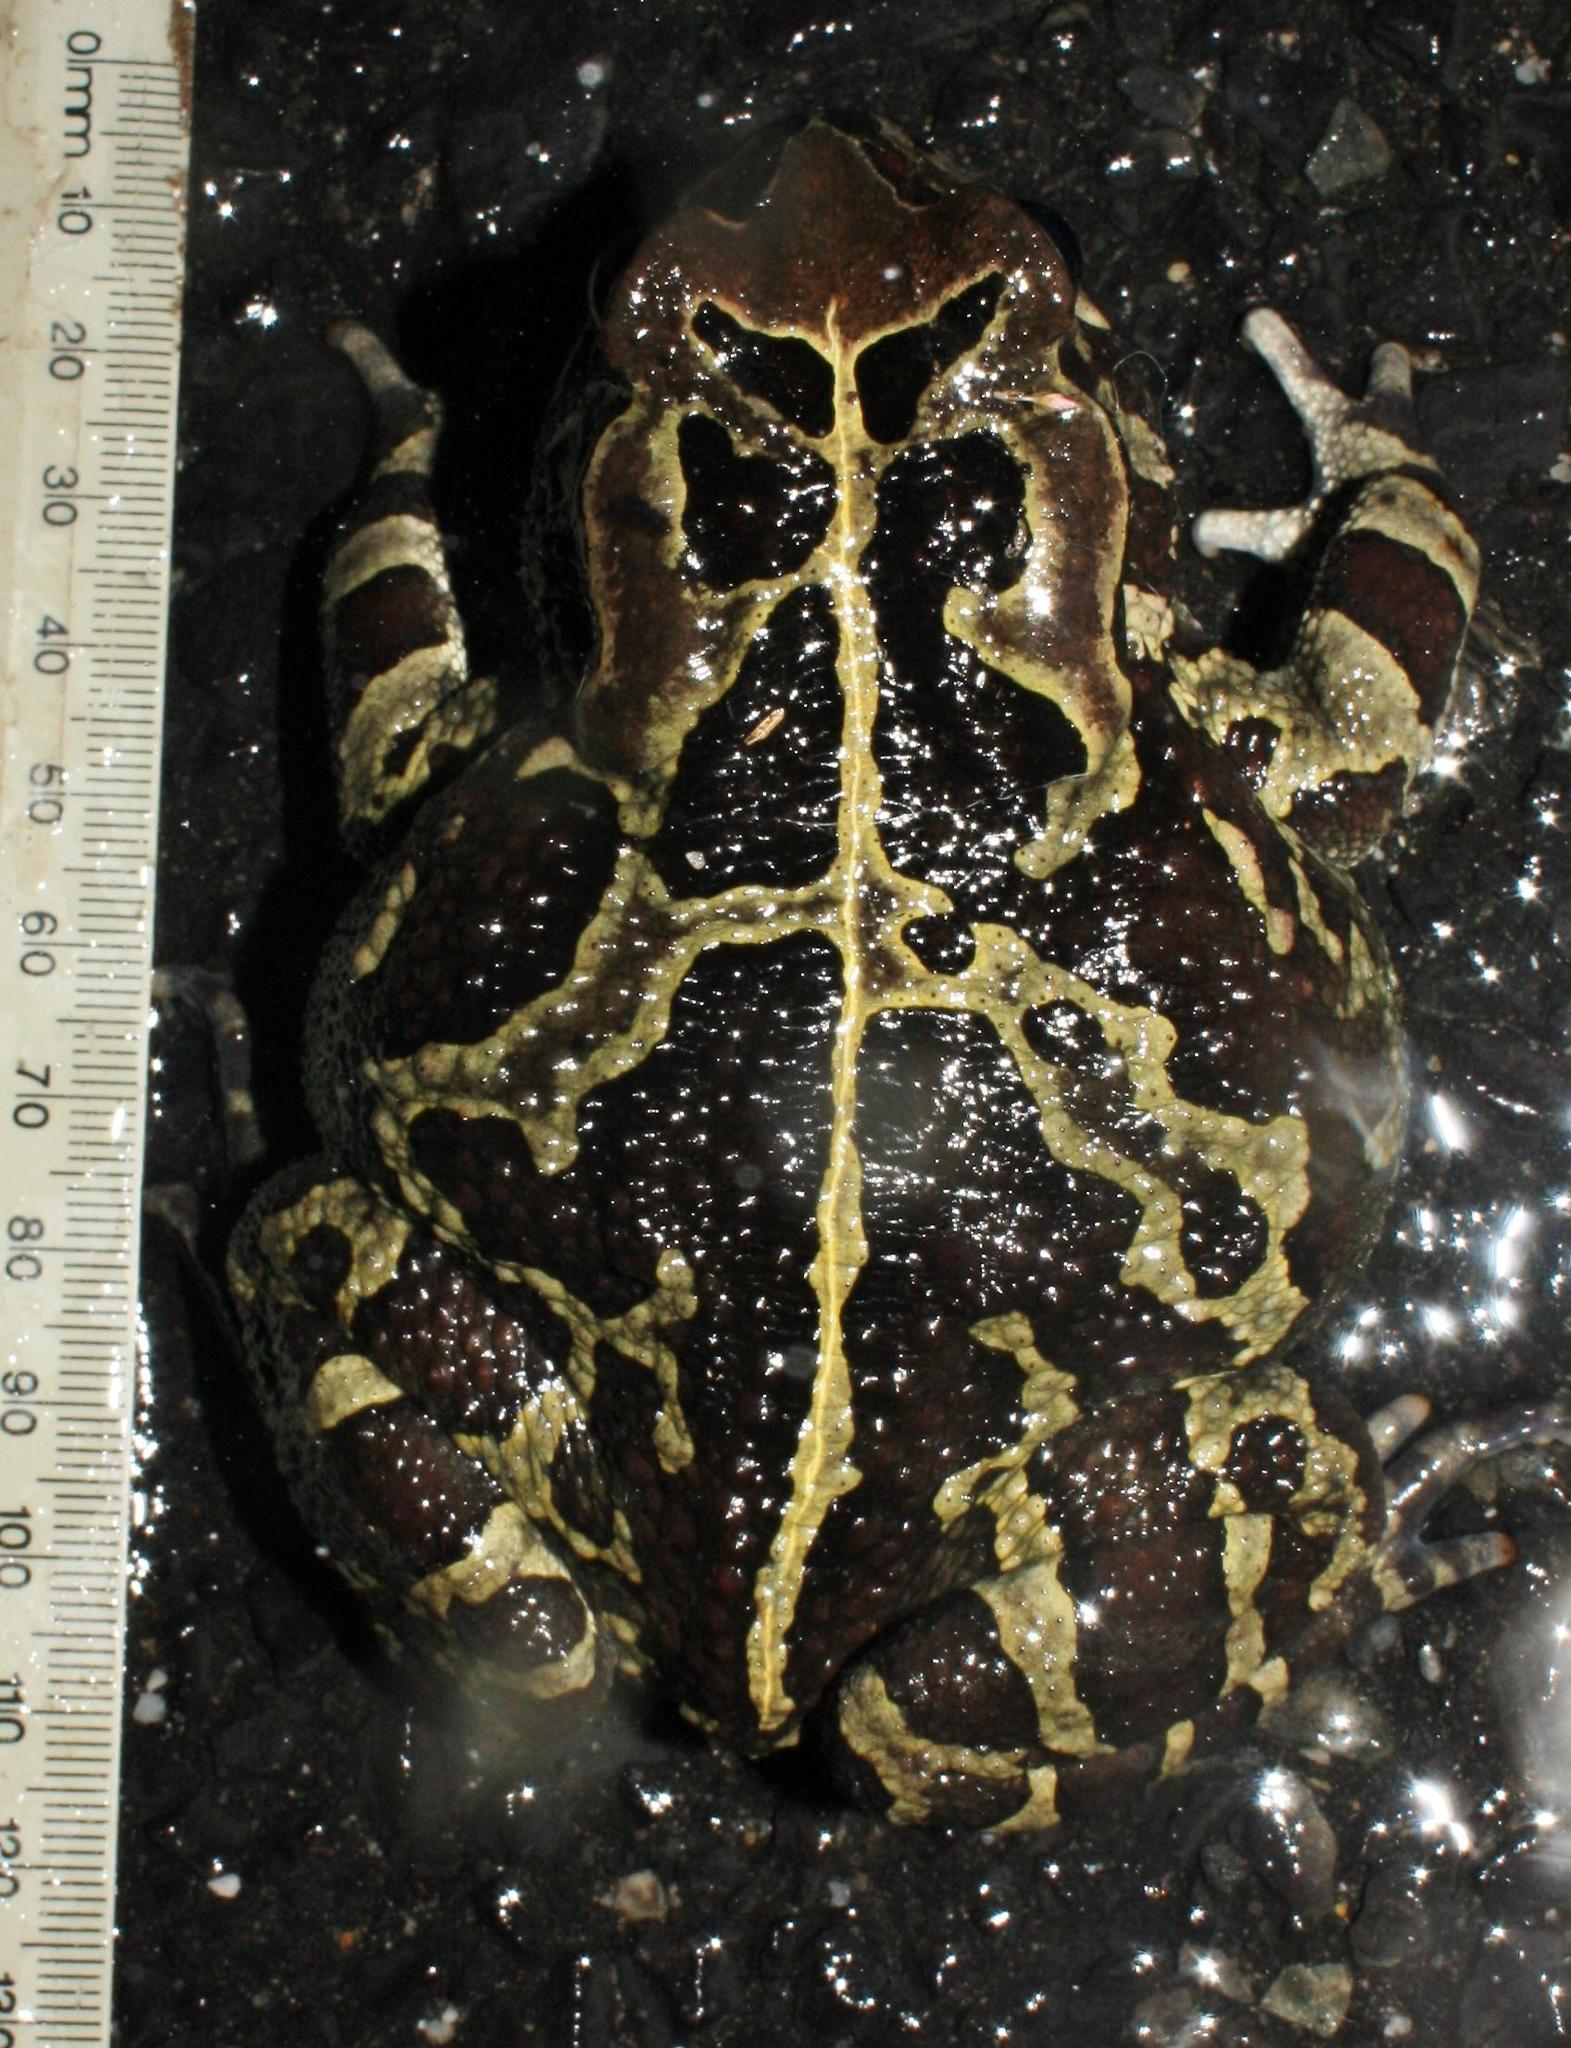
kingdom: Animalia
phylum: Chordata
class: Amphibia
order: Anura
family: Bufonidae
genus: Sclerophrys
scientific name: Sclerophrys pantherina
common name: Panther toad
